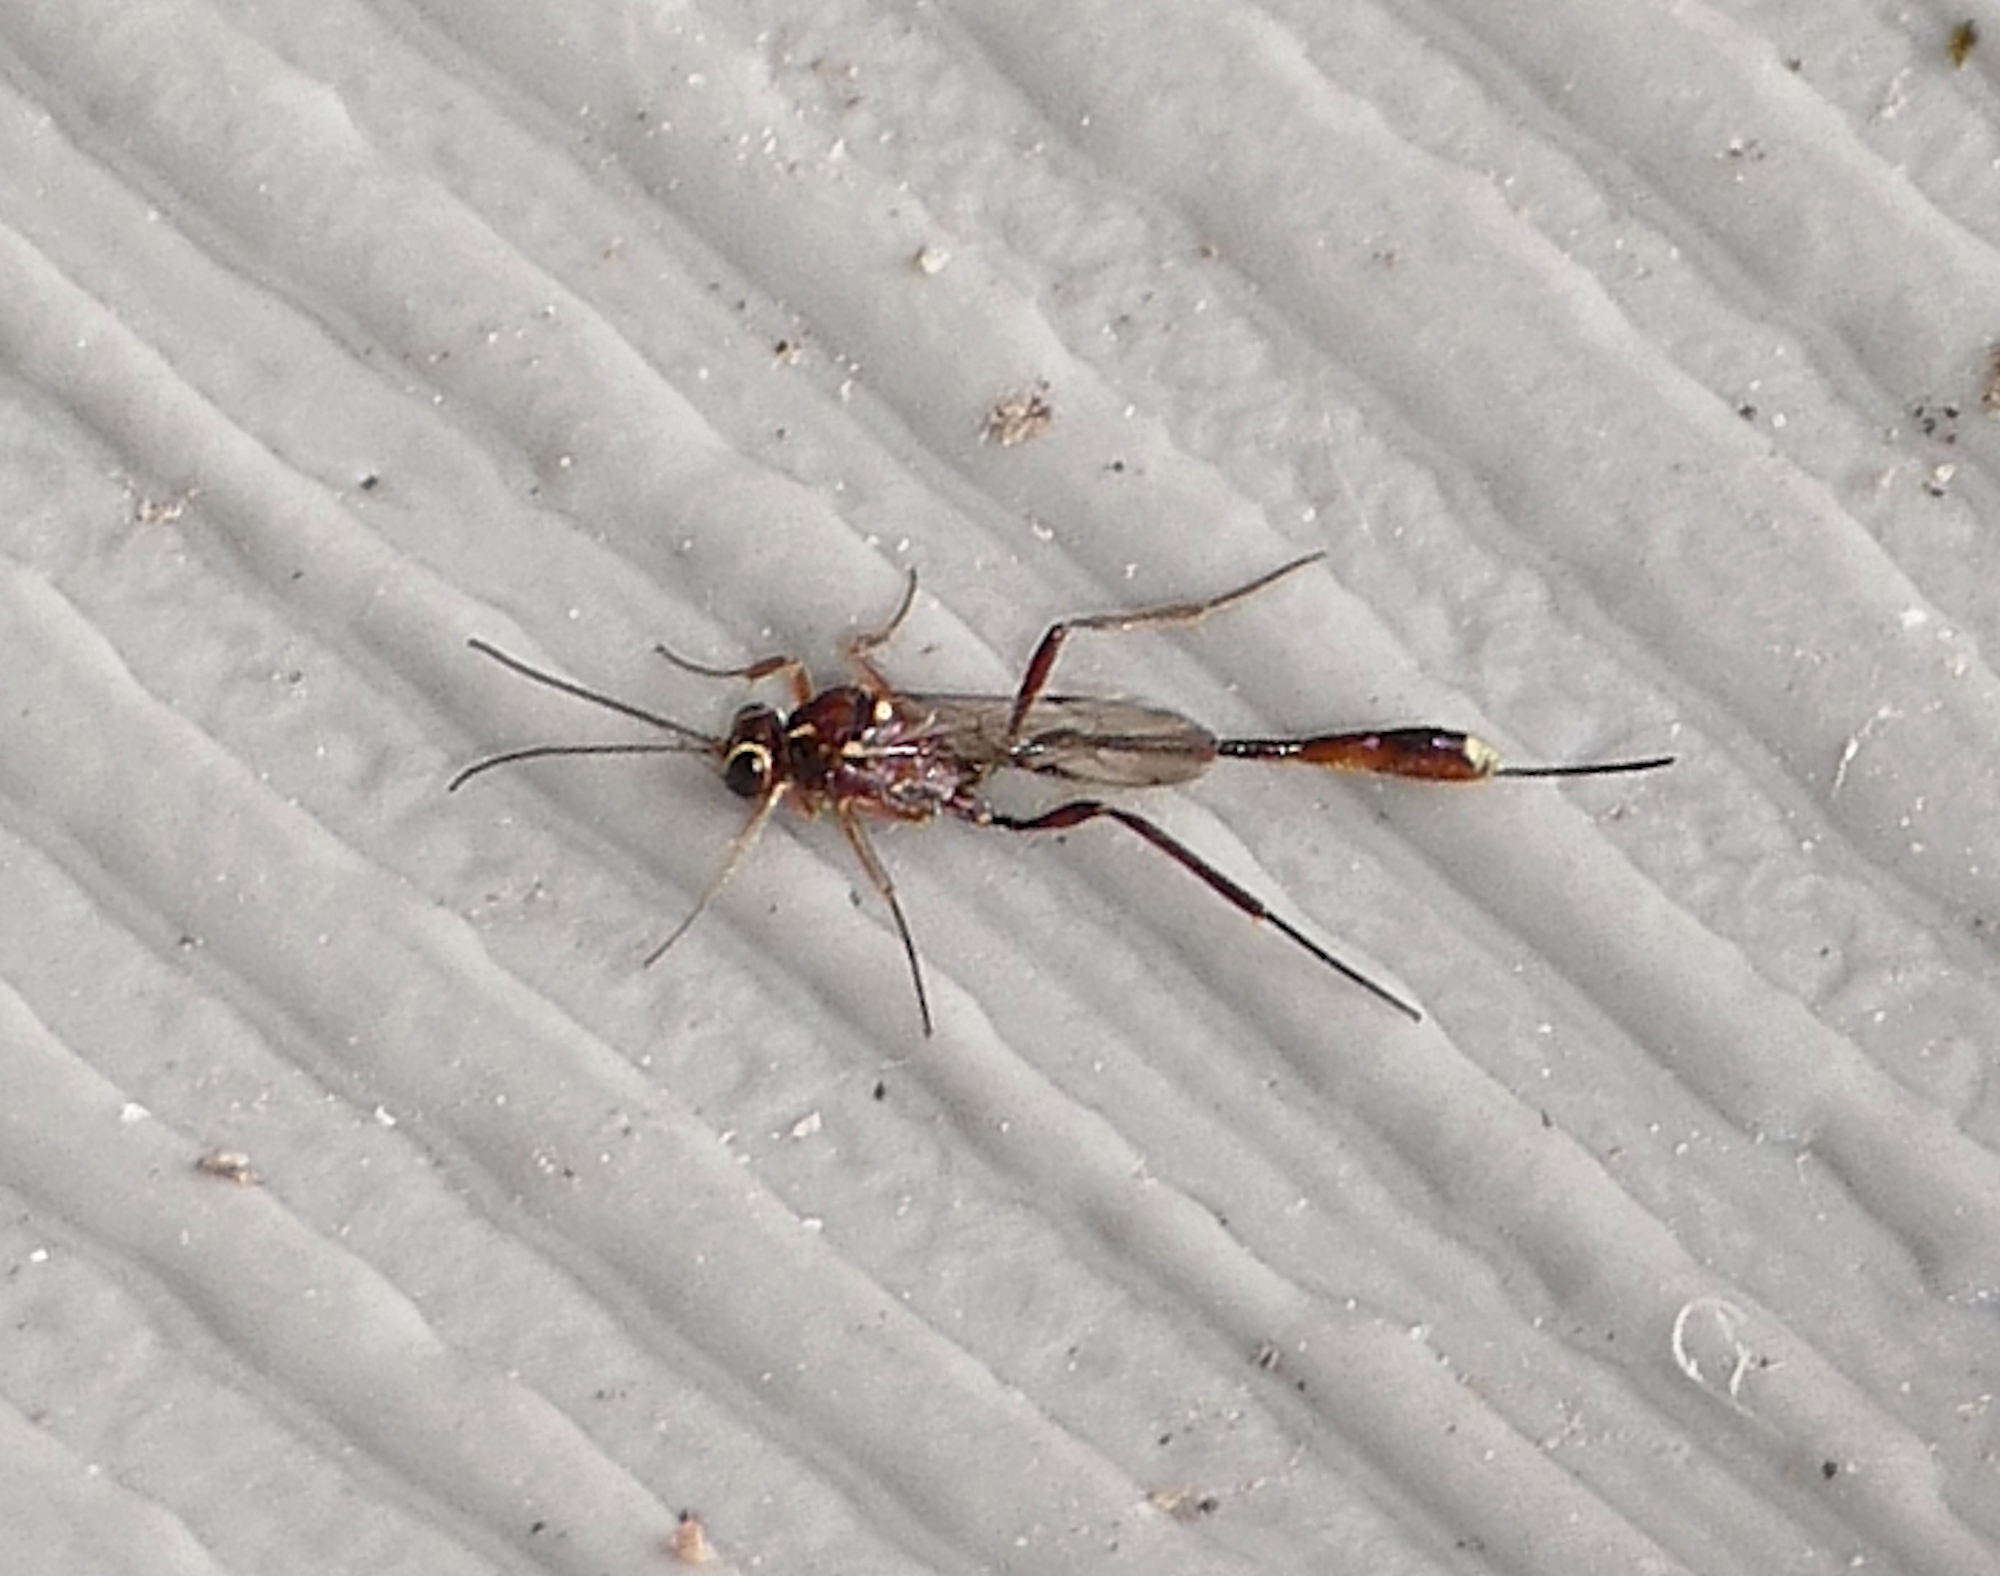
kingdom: Animalia
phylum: Arthropoda
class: Insecta
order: Hymenoptera
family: Ichneumonidae
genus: Anomalon
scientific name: Anomalon
